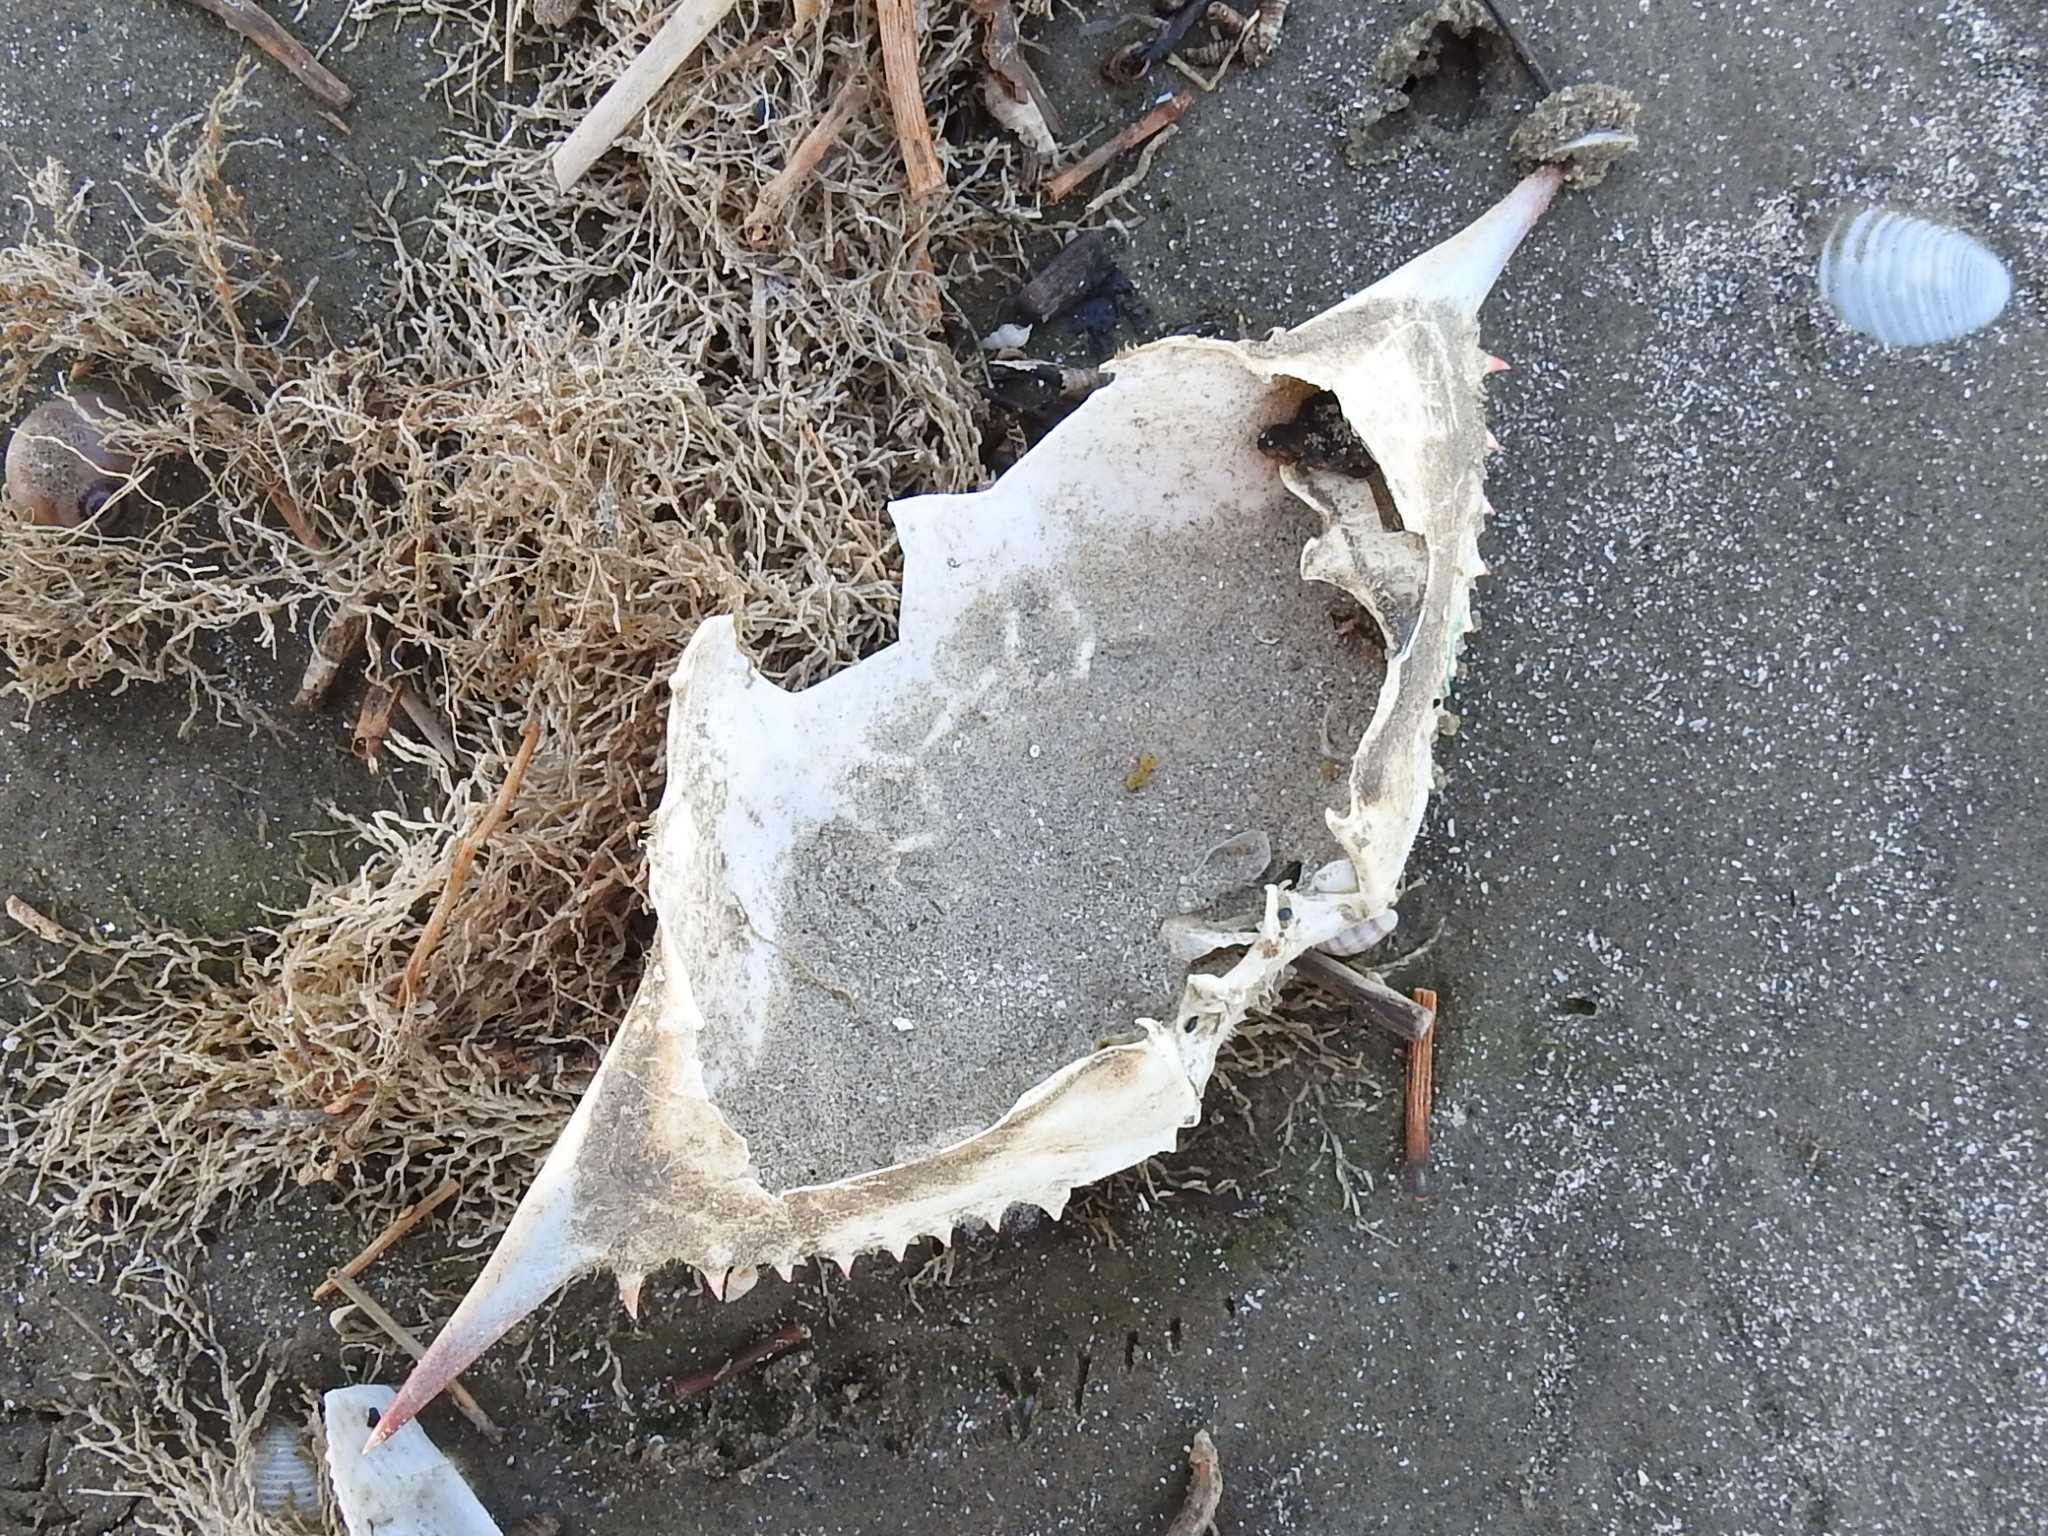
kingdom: Animalia
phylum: Arthropoda
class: Malacostraca
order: Decapoda
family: Portunidae
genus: Callinectes
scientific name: Callinectes sapidus
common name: Blue crab
